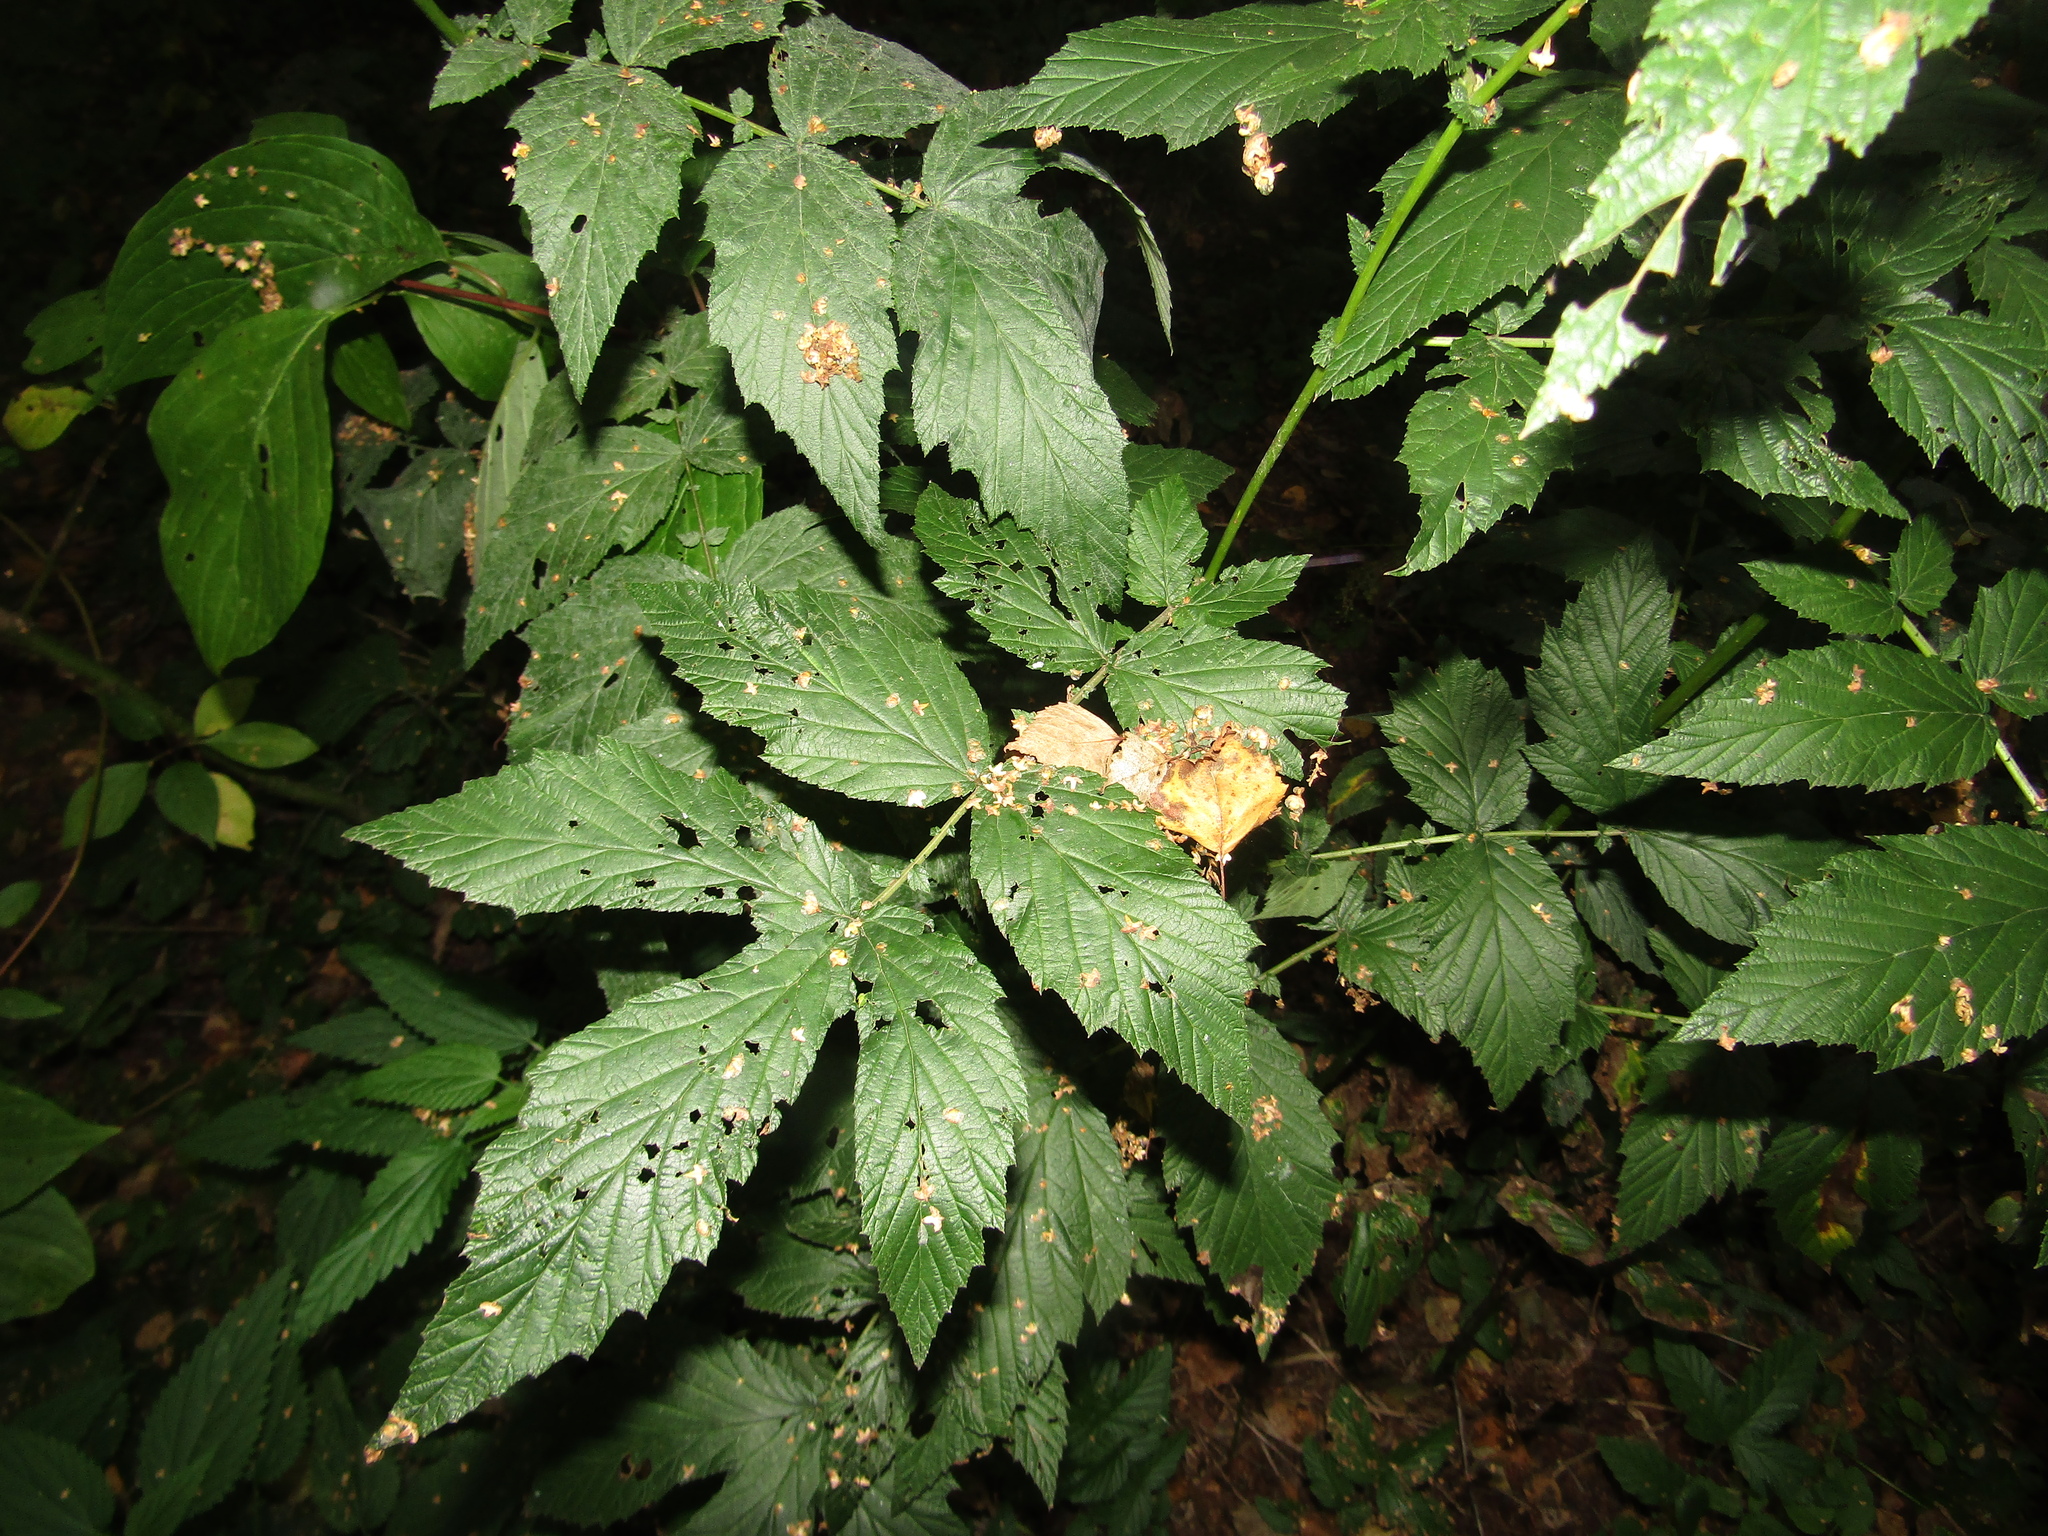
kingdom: Plantae
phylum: Tracheophyta
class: Magnoliopsida
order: Rosales
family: Rosaceae
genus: Filipendula
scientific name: Filipendula ulmaria
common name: Meadowsweet
